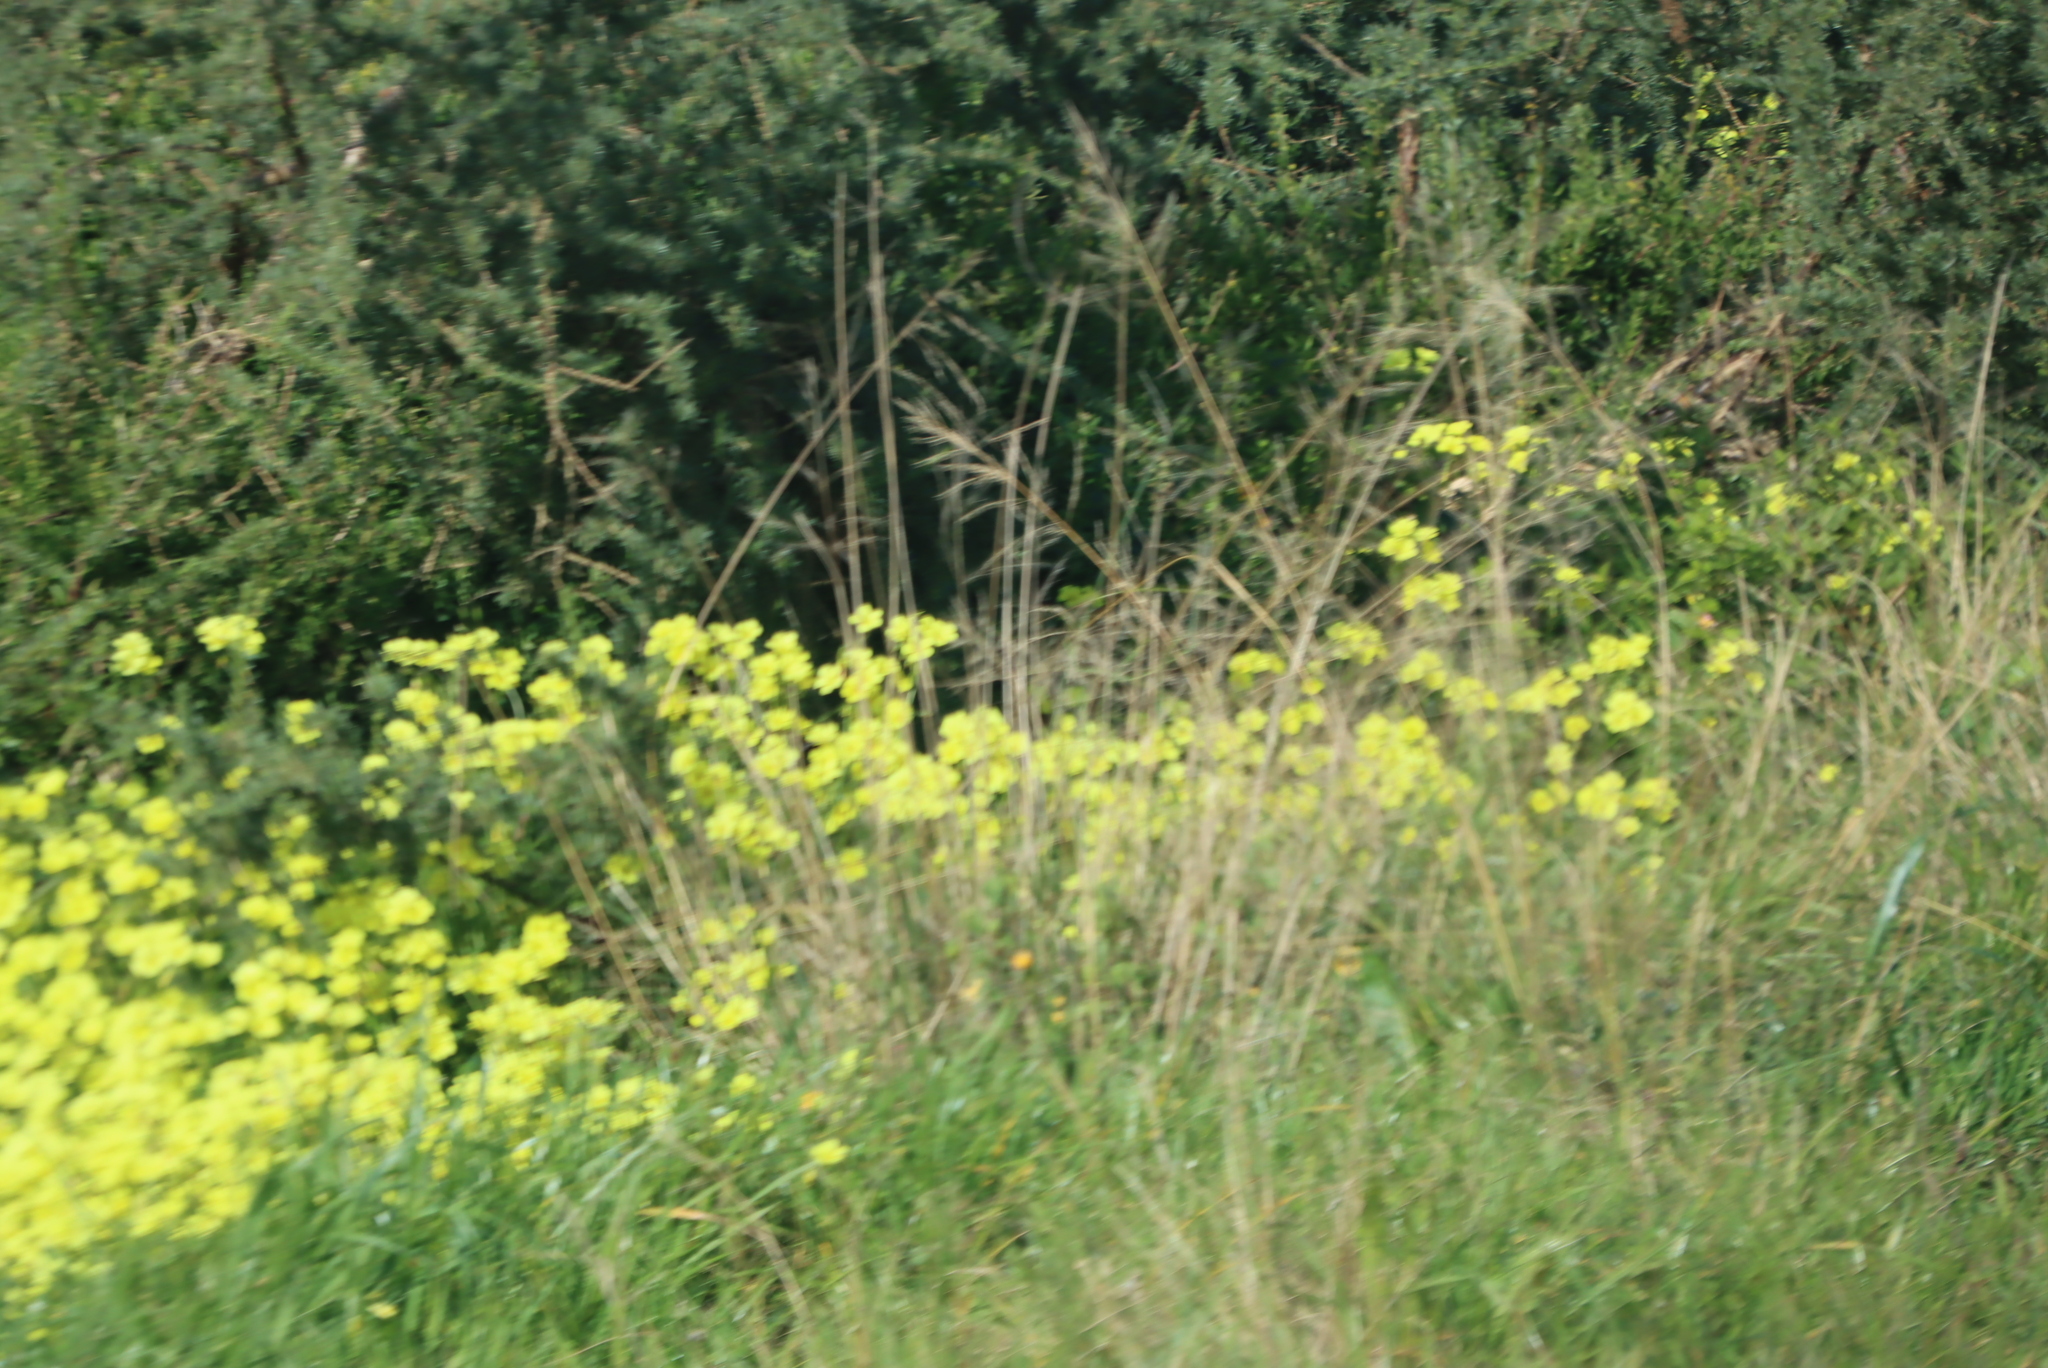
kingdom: Plantae
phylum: Tracheophyta
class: Magnoliopsida
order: Oxalidales
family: Oxalidaceae
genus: Oxalis
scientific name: Oxalis pes-caprae
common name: Bermuda-buttercup
